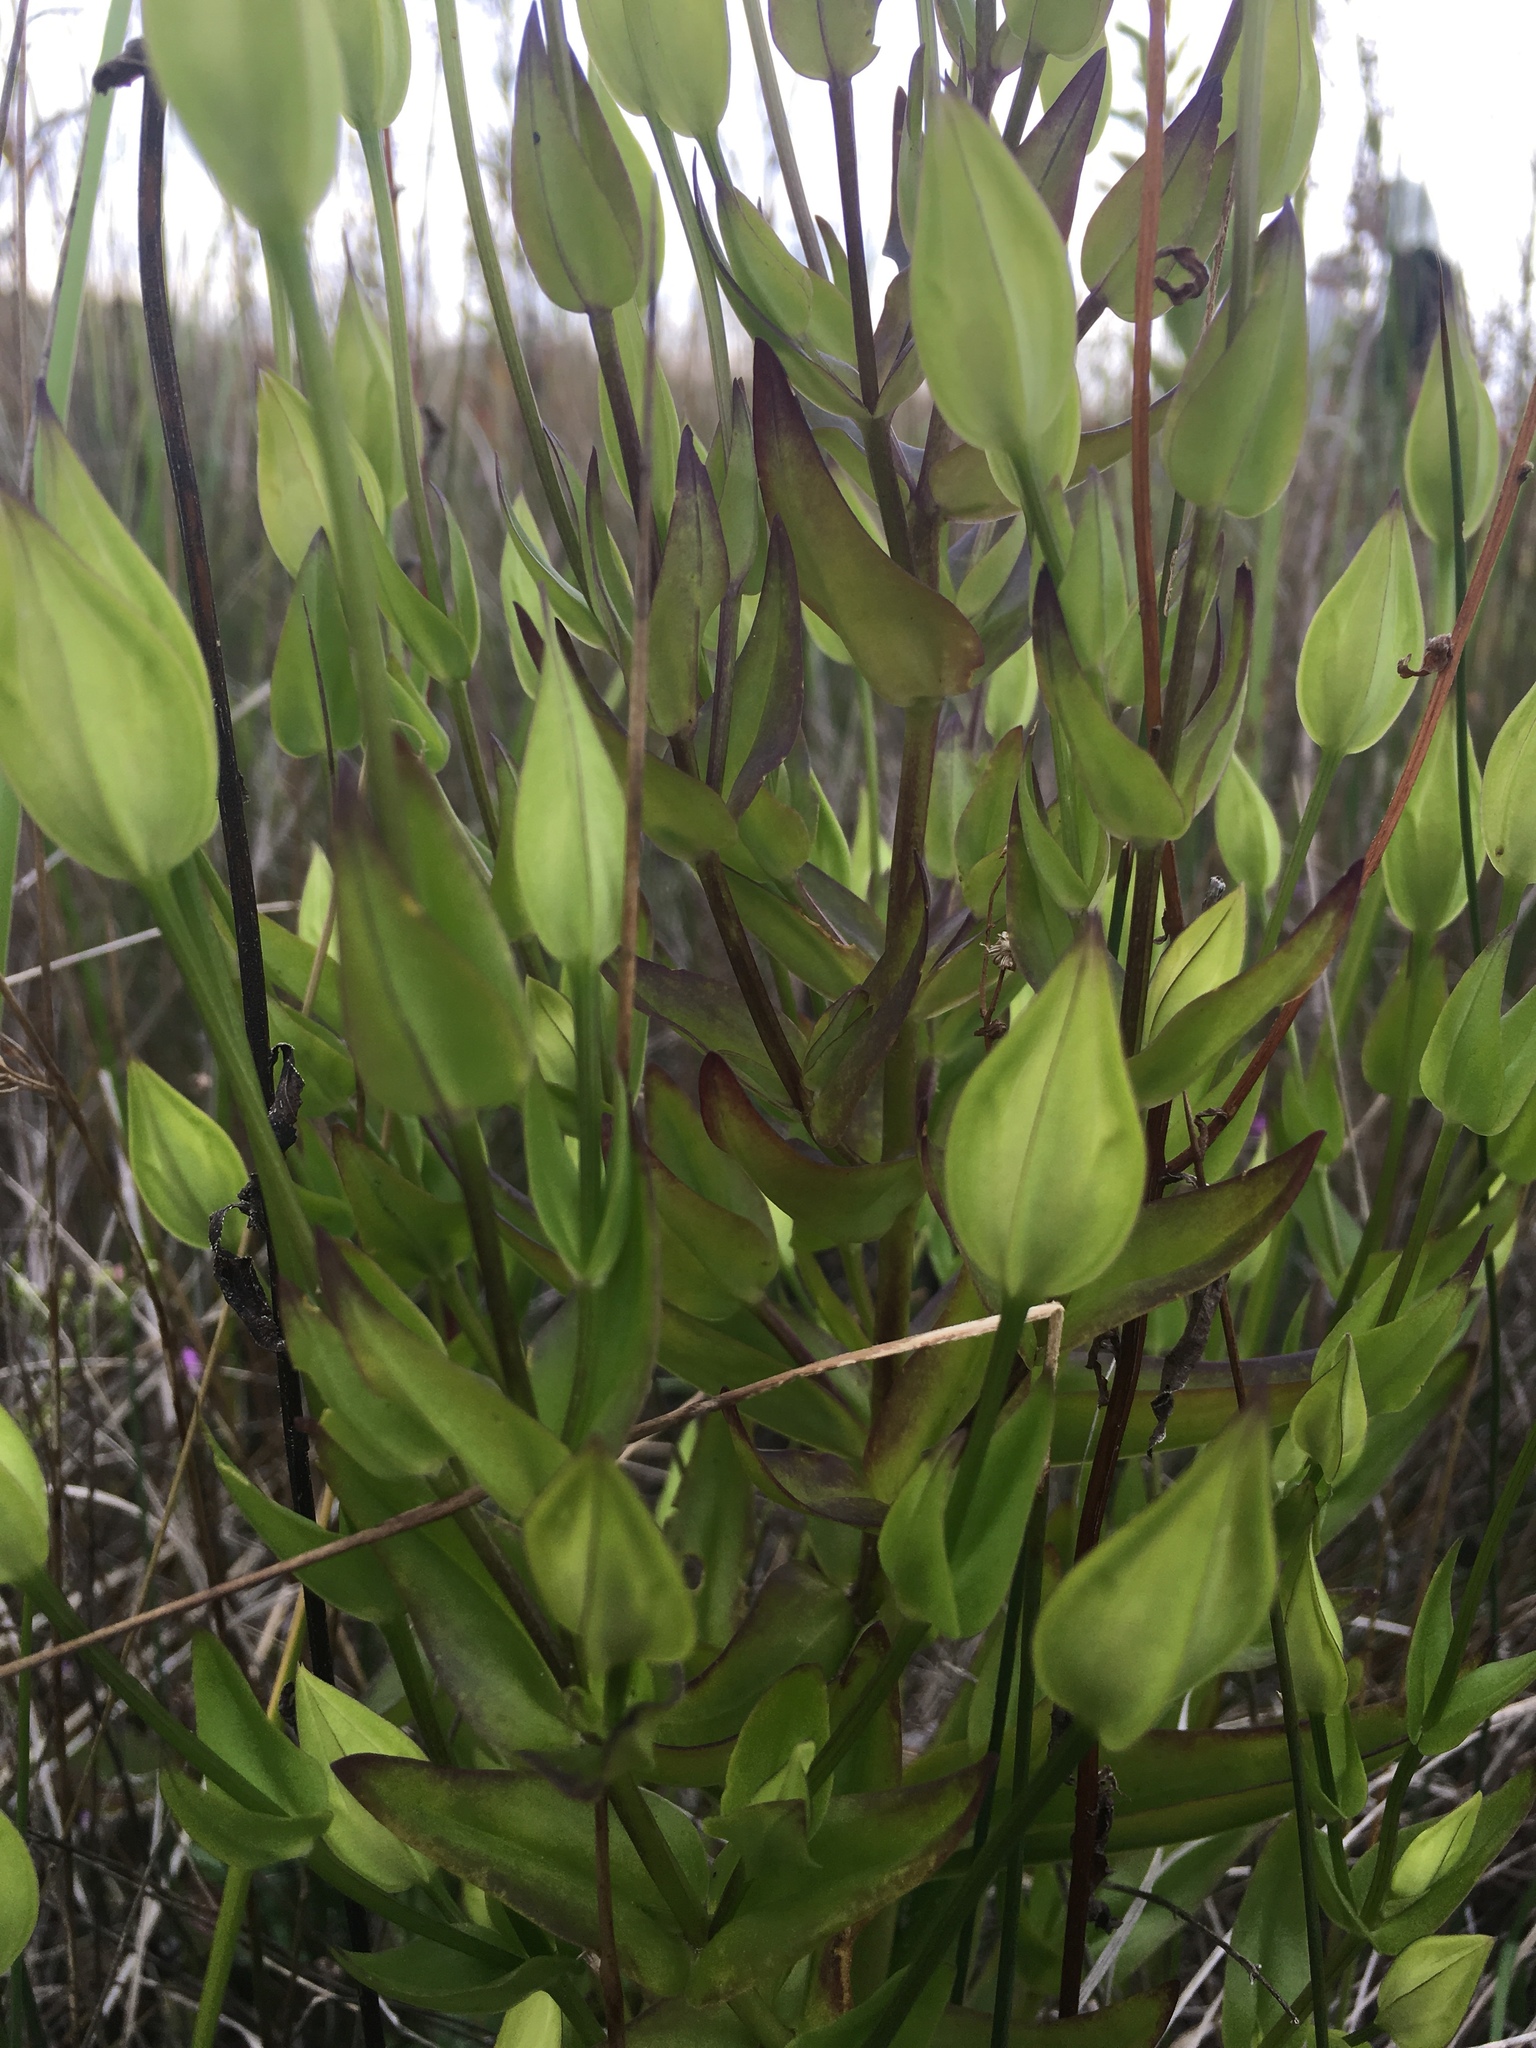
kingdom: Plantae
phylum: Tracheophyta
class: Magnoliopsida
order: Gentianales
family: Gentianaceae
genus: Gentianopsis
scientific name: Gentianopsis crinita
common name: Fringed-gentian
